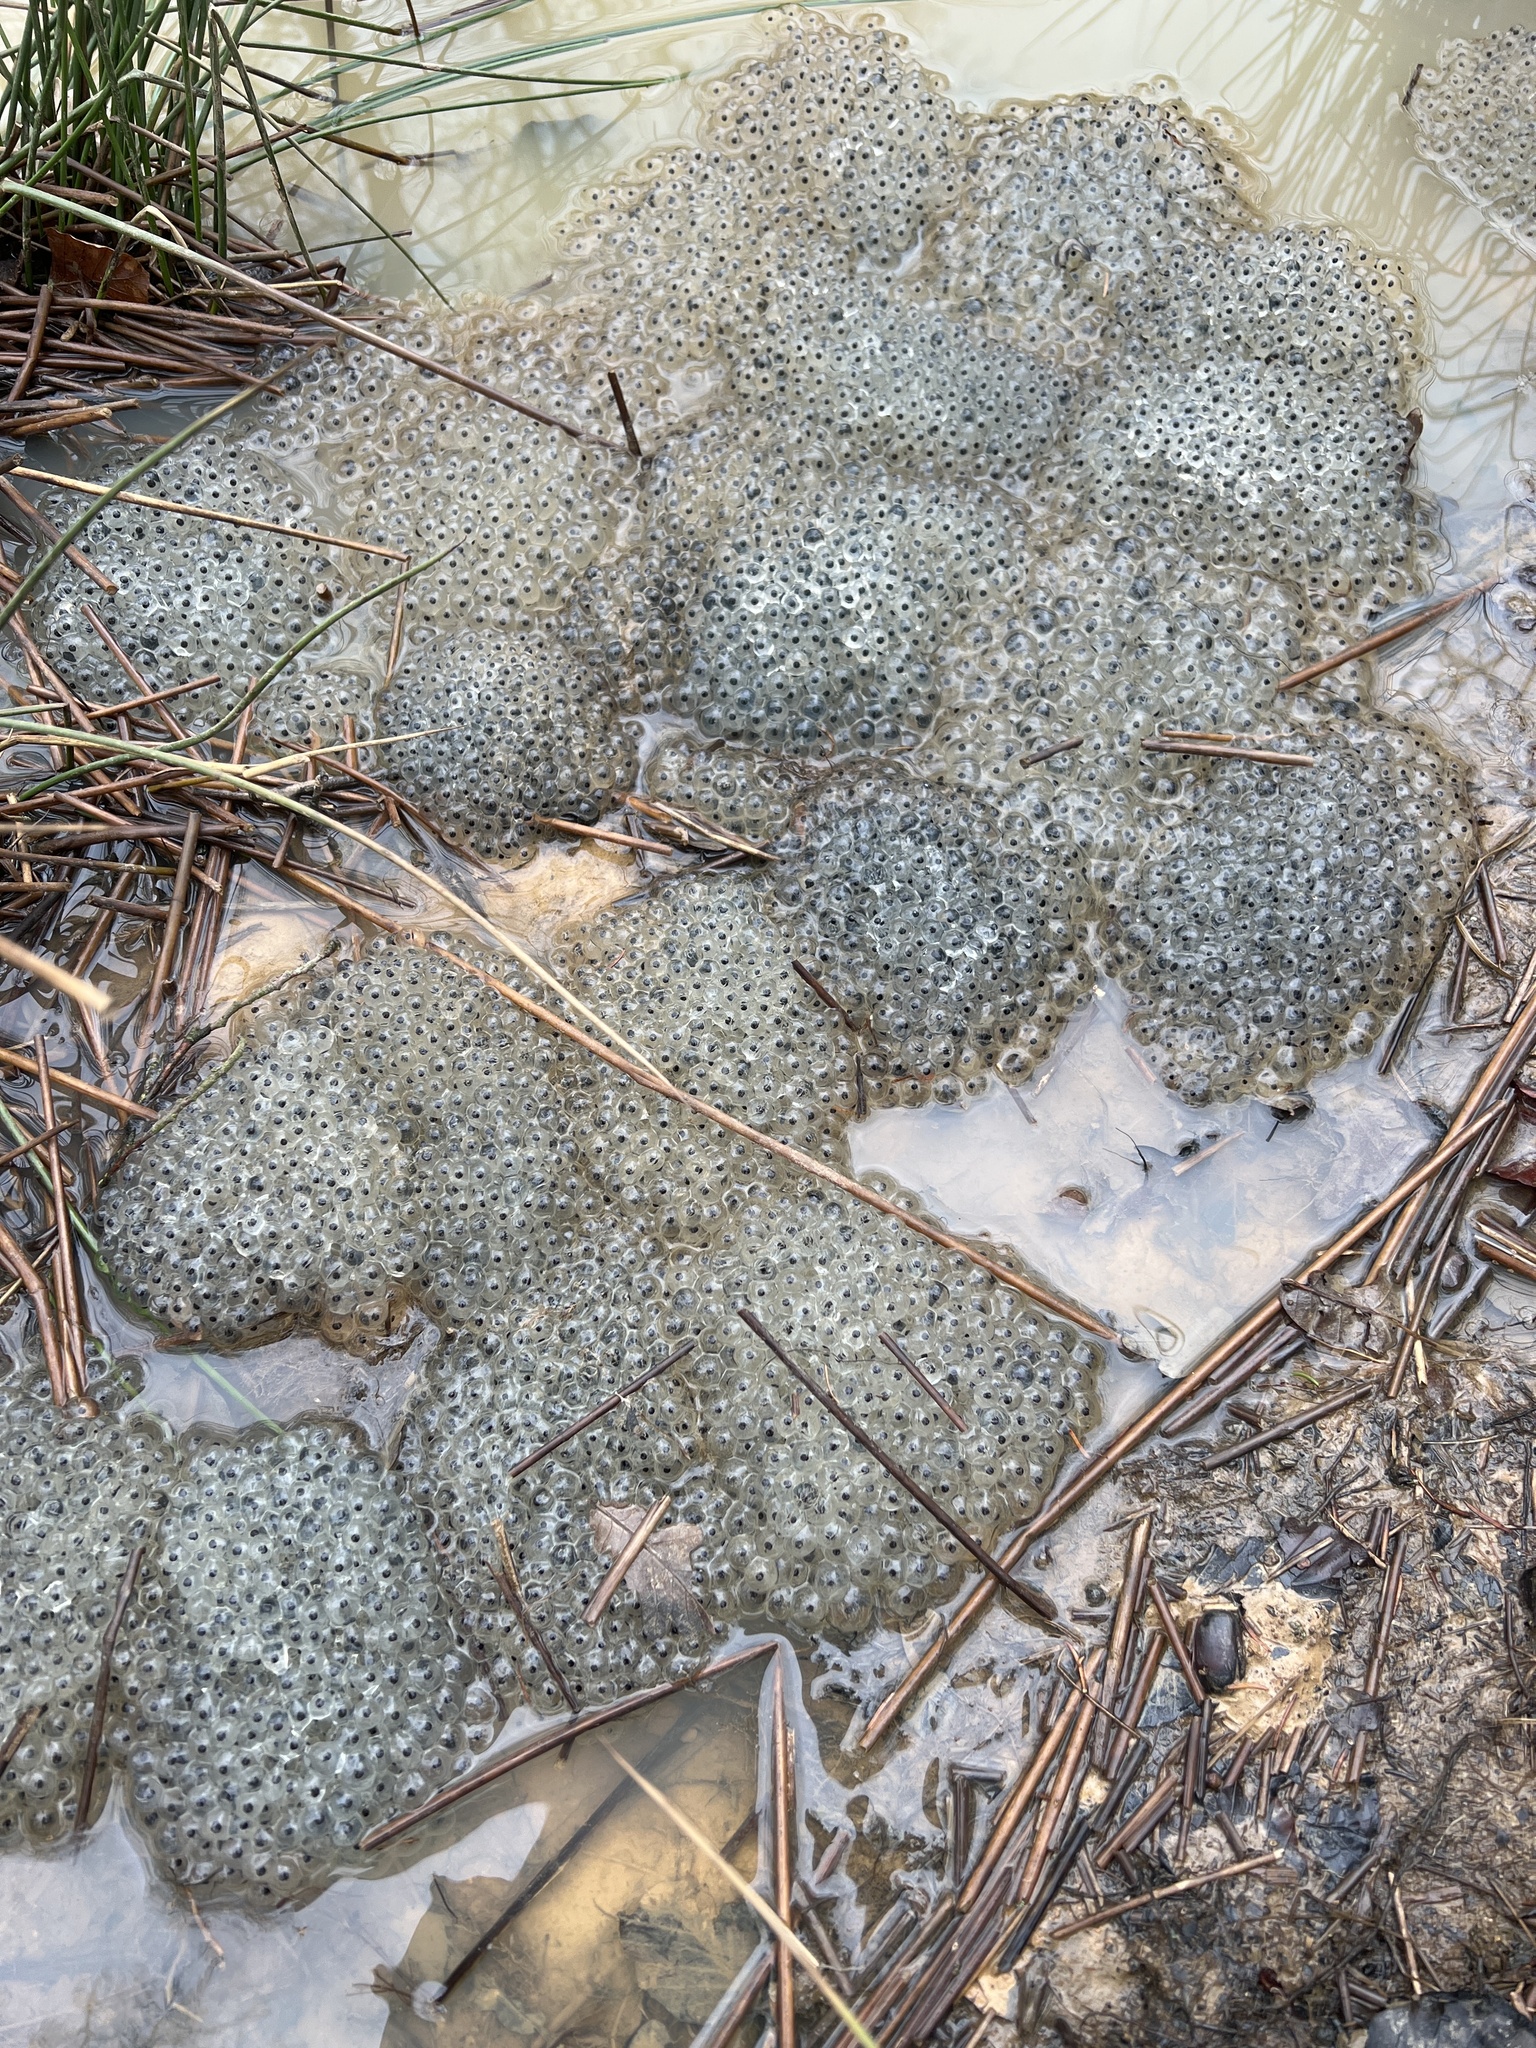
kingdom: Animalia
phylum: Chordata
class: Amphibia
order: Anura
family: Ranidae
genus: Rana
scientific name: Rana temporaria
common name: Common frog
